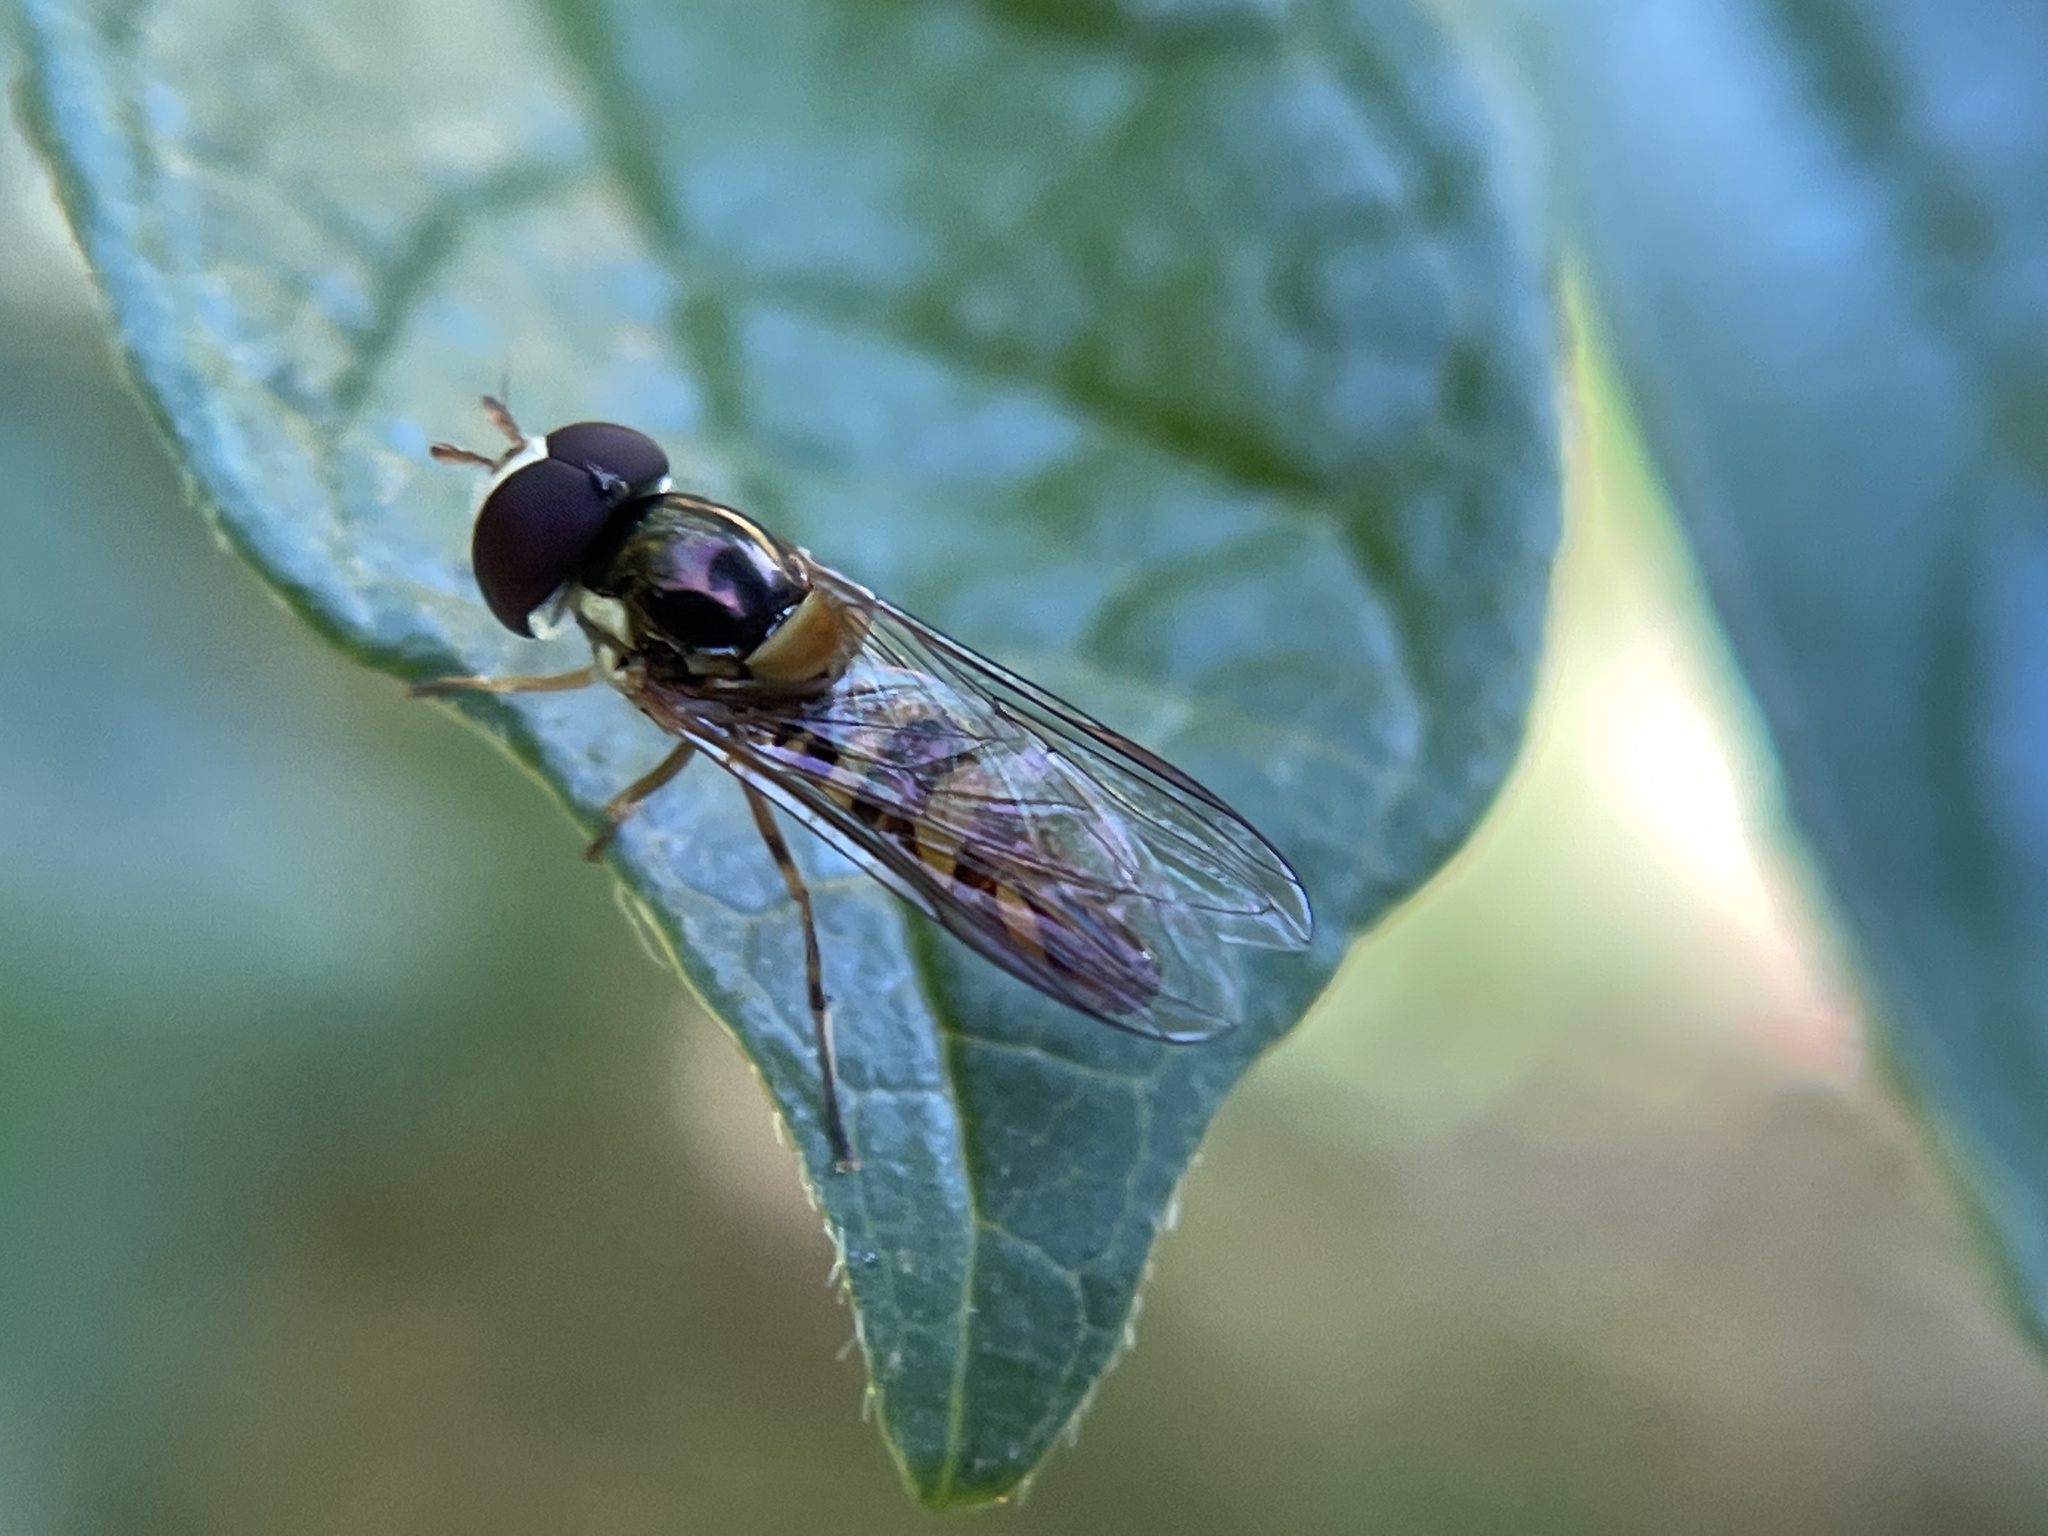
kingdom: Animalia
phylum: Arthropoda
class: Insecta
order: Diptera
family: Syrphidae
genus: Allograpta
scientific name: Allograpta obliqua
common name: Common oblique syrphid
